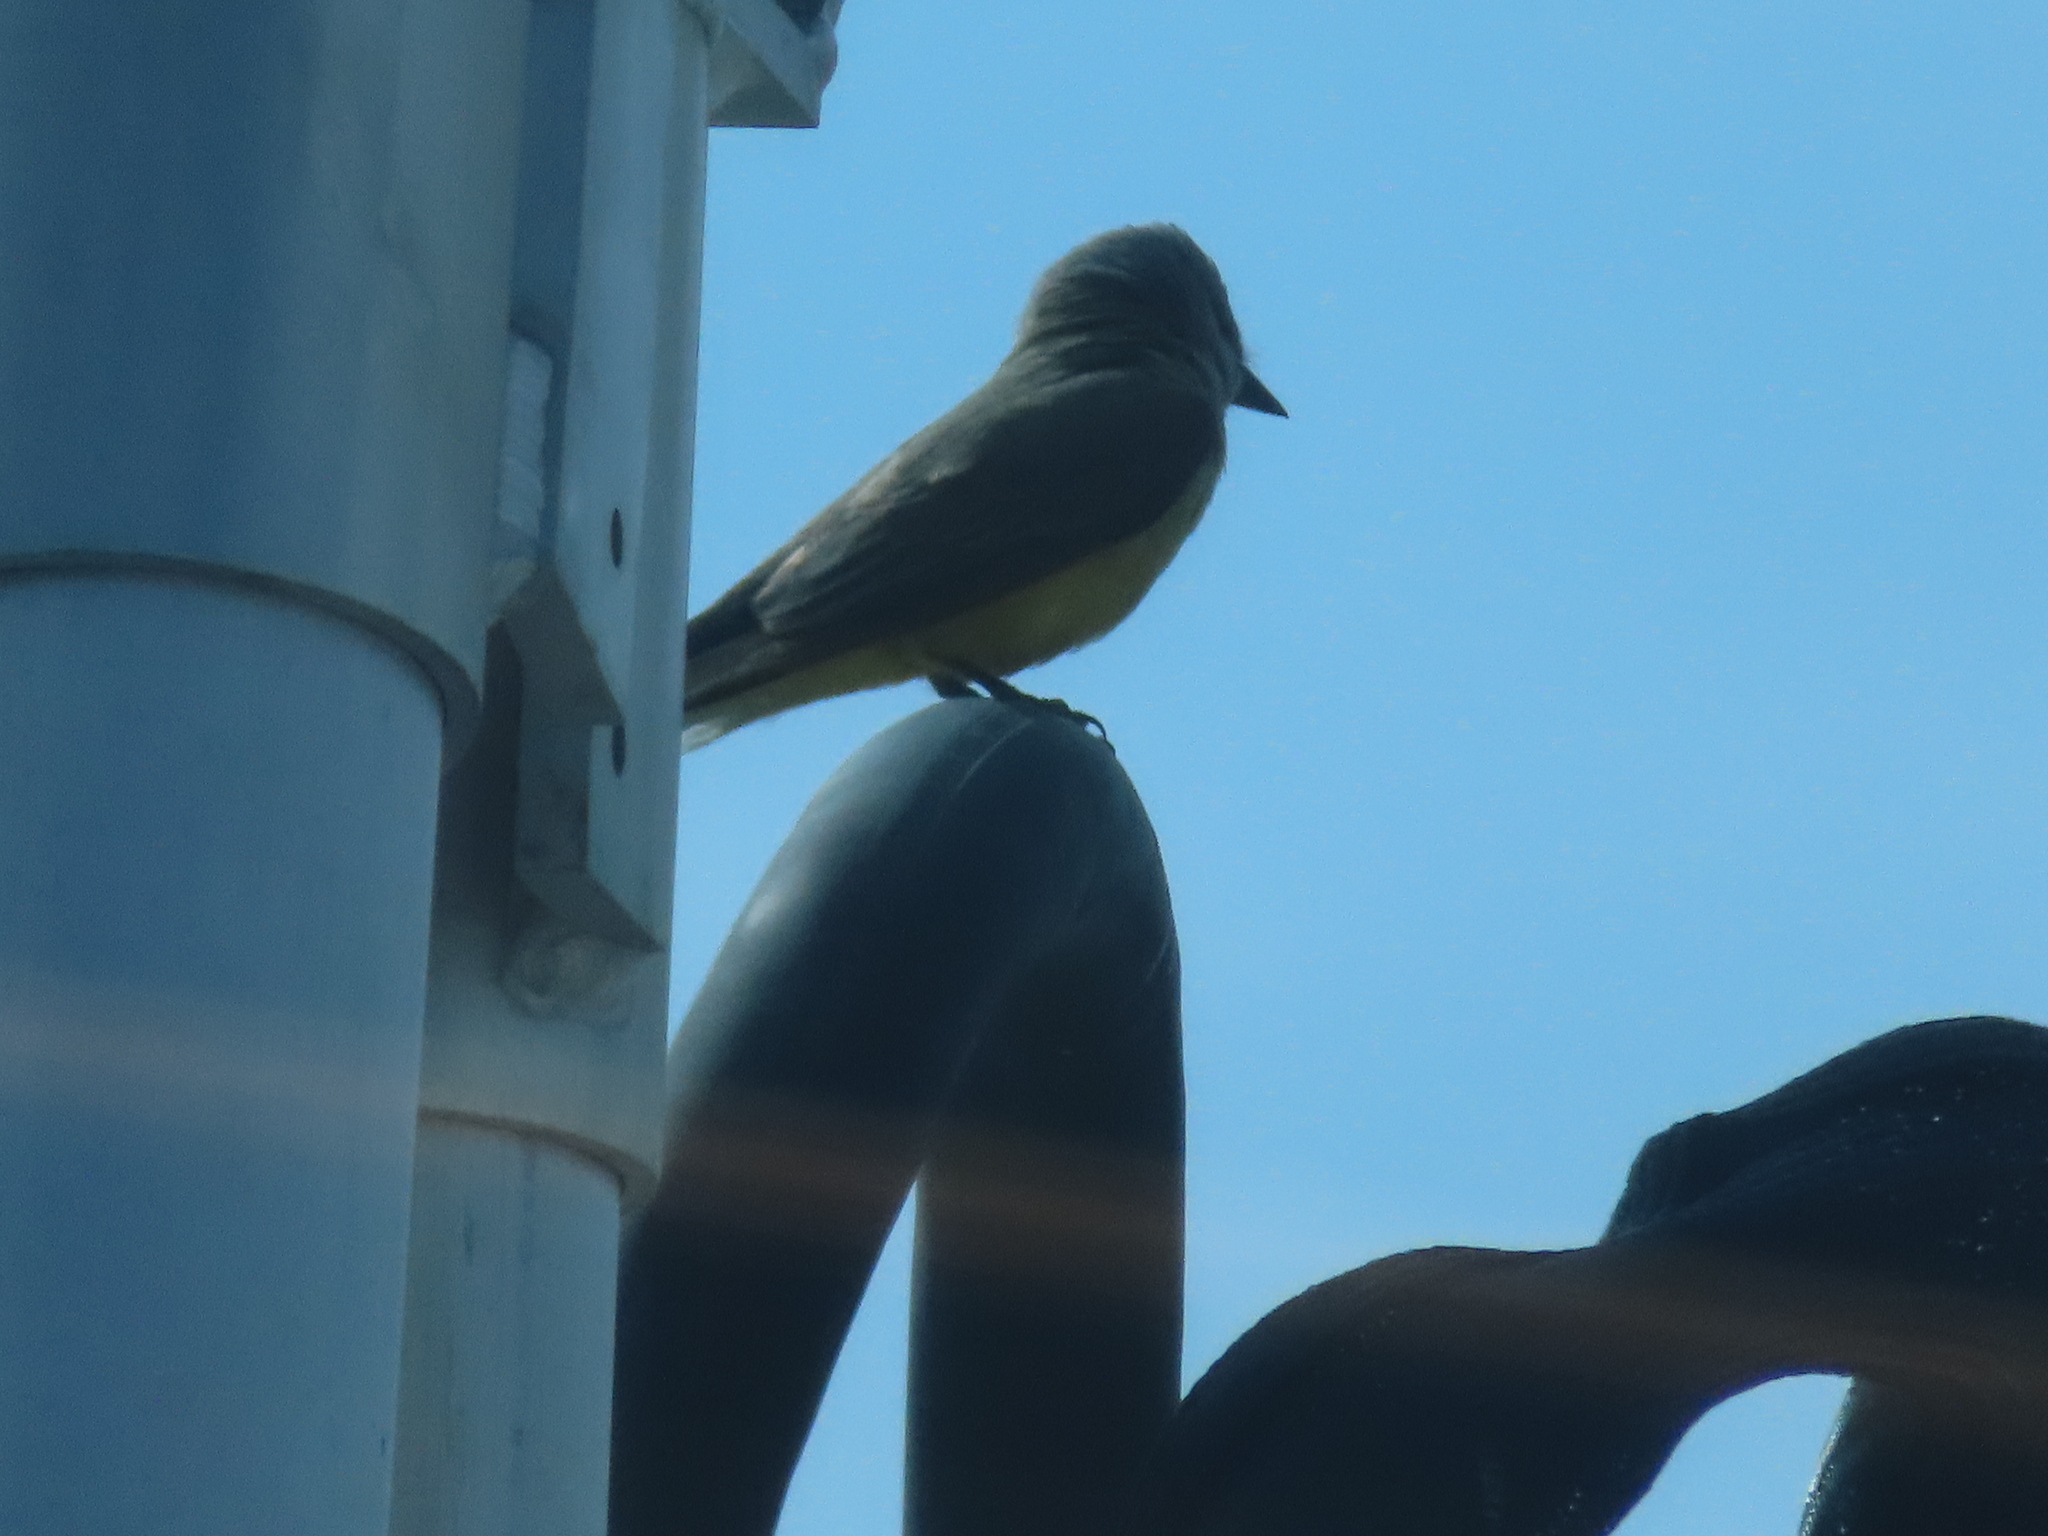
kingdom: Animalia
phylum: Chordata
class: Aves
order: Passeriformes
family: Tyrannidae
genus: Tyrannus
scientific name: Tyrannus verticalis
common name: Western kingbird
